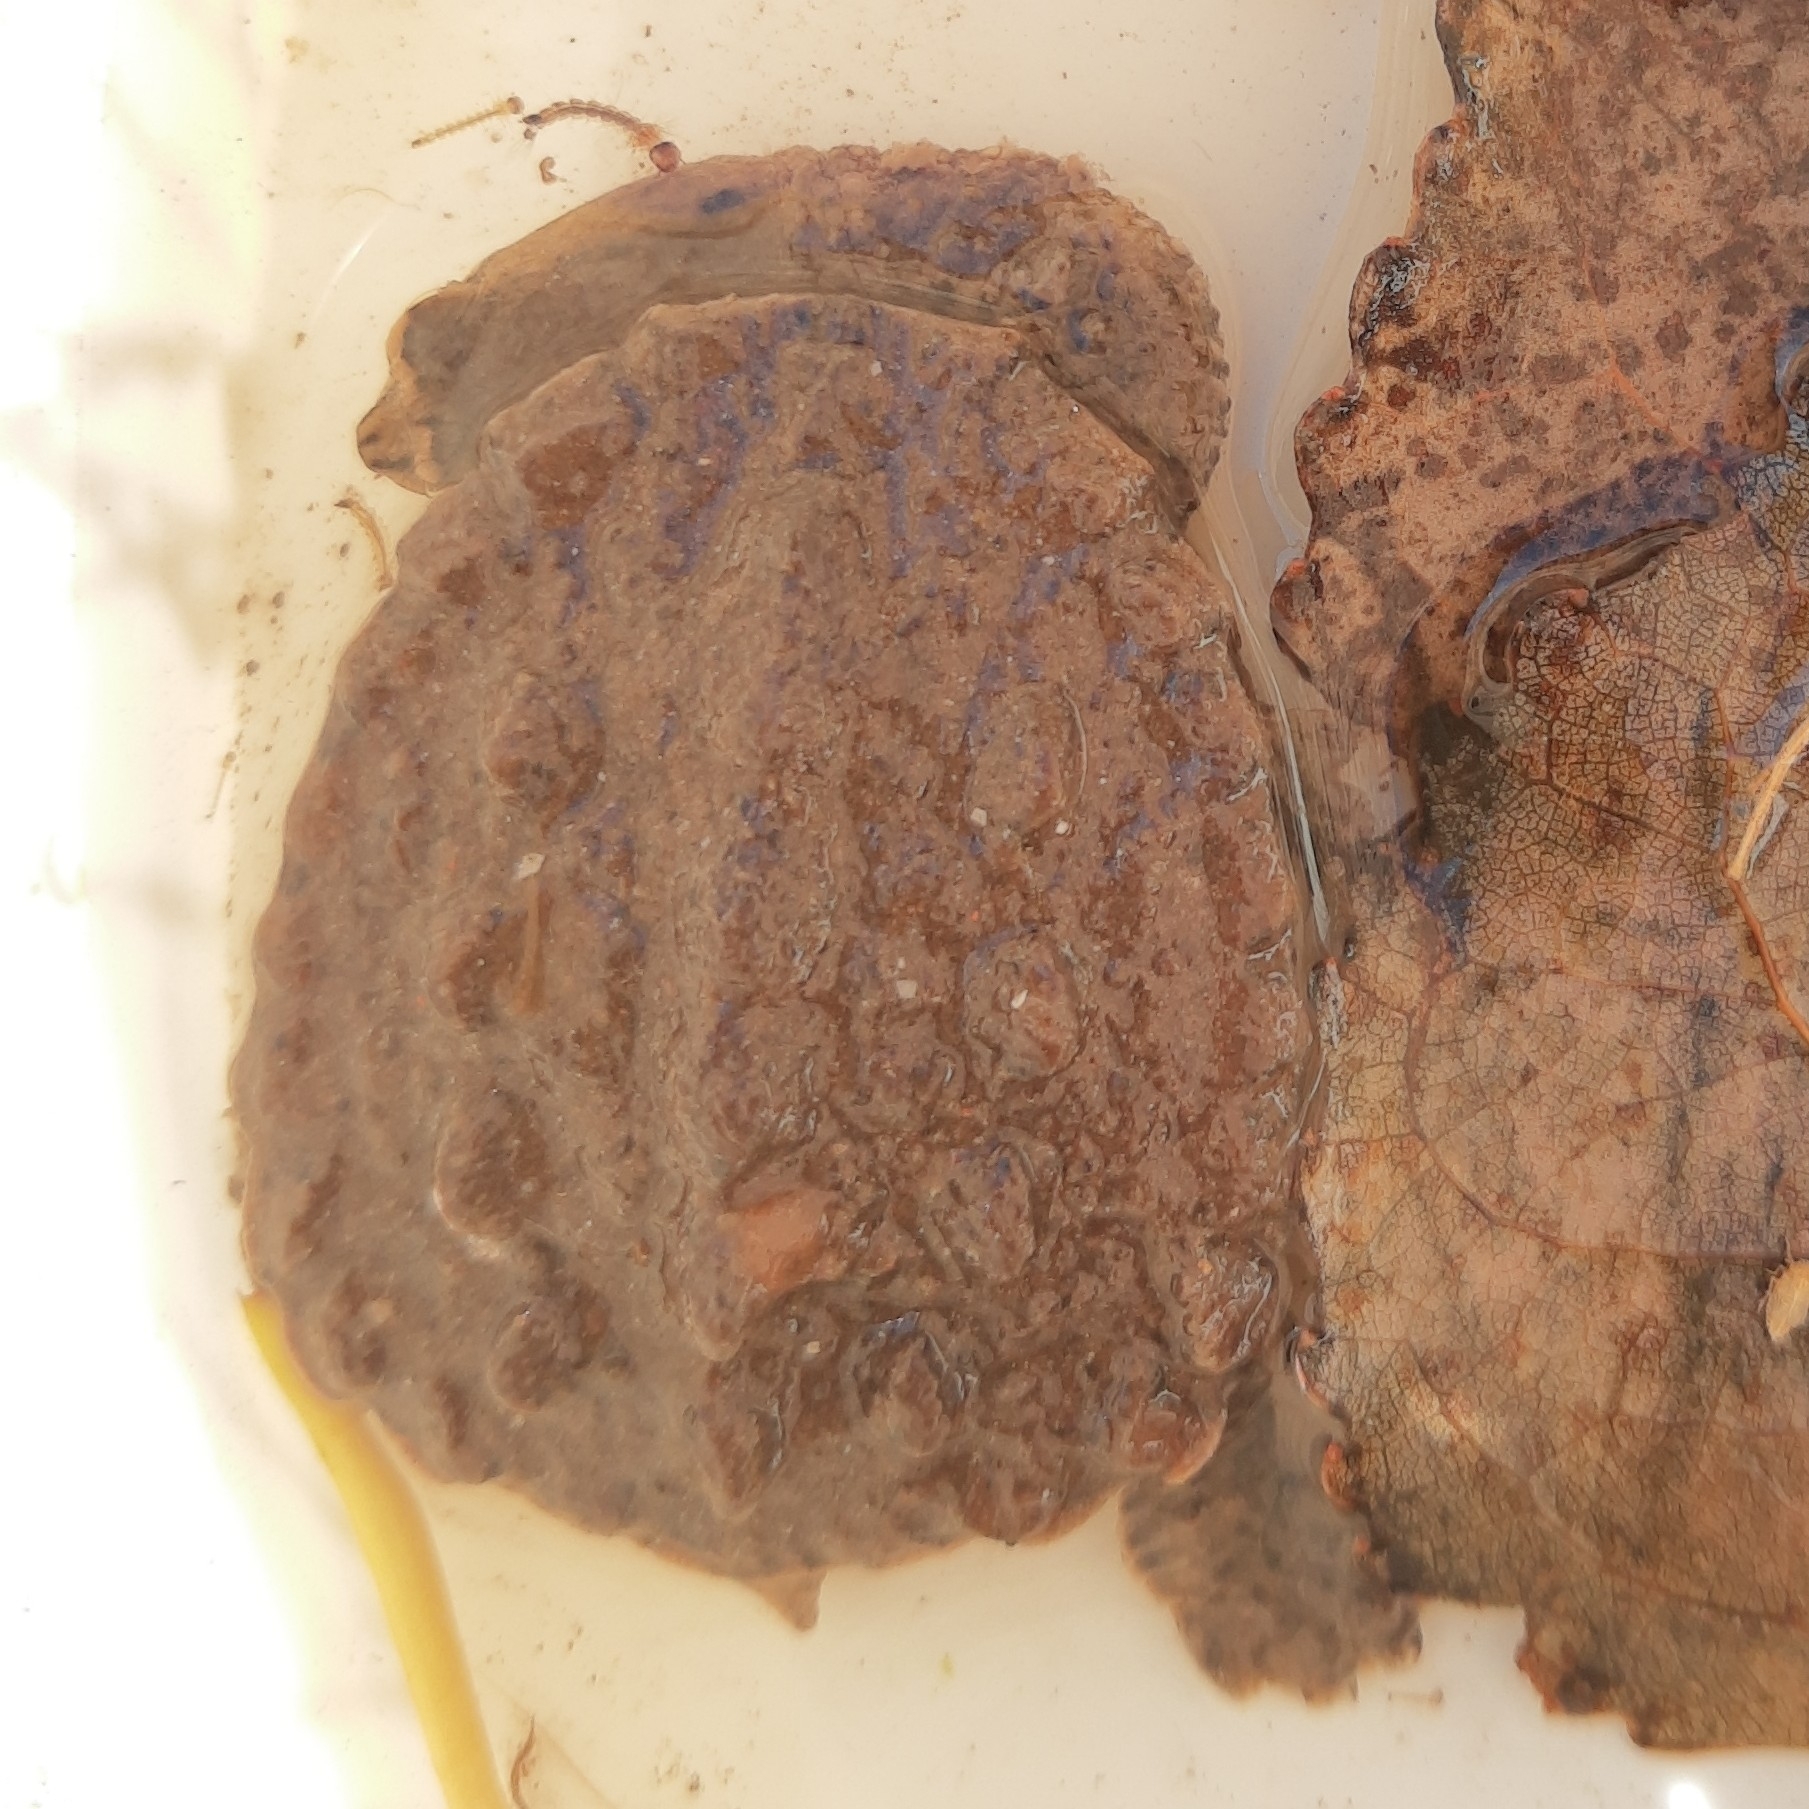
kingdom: Animalia
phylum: Chordata
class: Testudines
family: Chelidae
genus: Hydromedusa
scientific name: Hydromedusa tectifera
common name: Argentine snake-necked turtle
